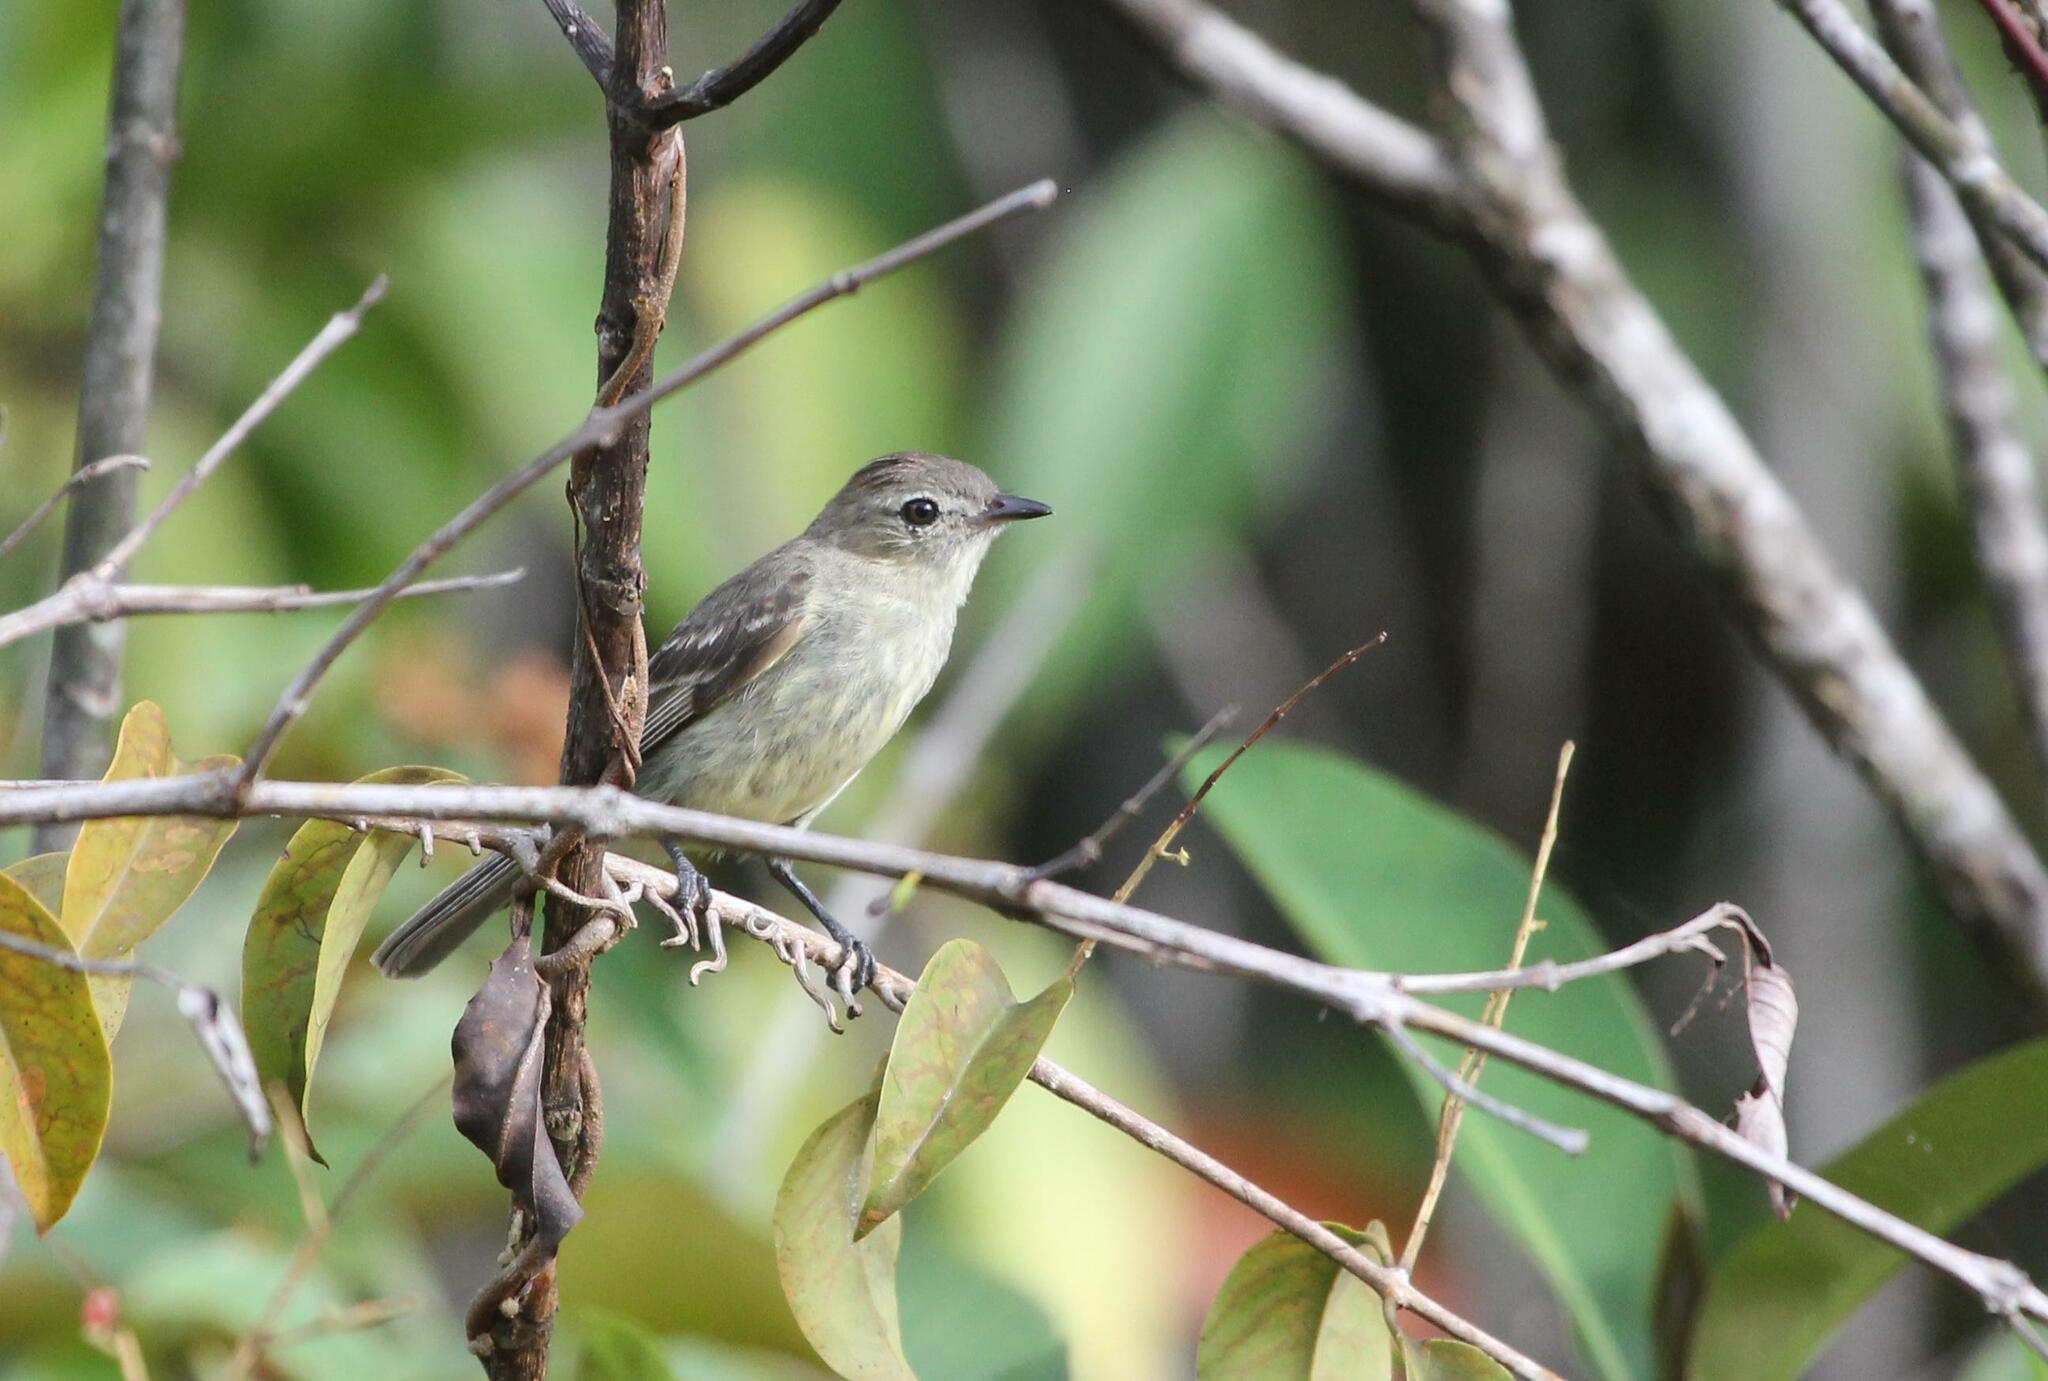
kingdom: Animalia
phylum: Chordata
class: Aves
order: Passeriformes
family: Tyrannidae
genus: Elaenia
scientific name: Elaenia ruficeps
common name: Rufous-crowned elaenia
